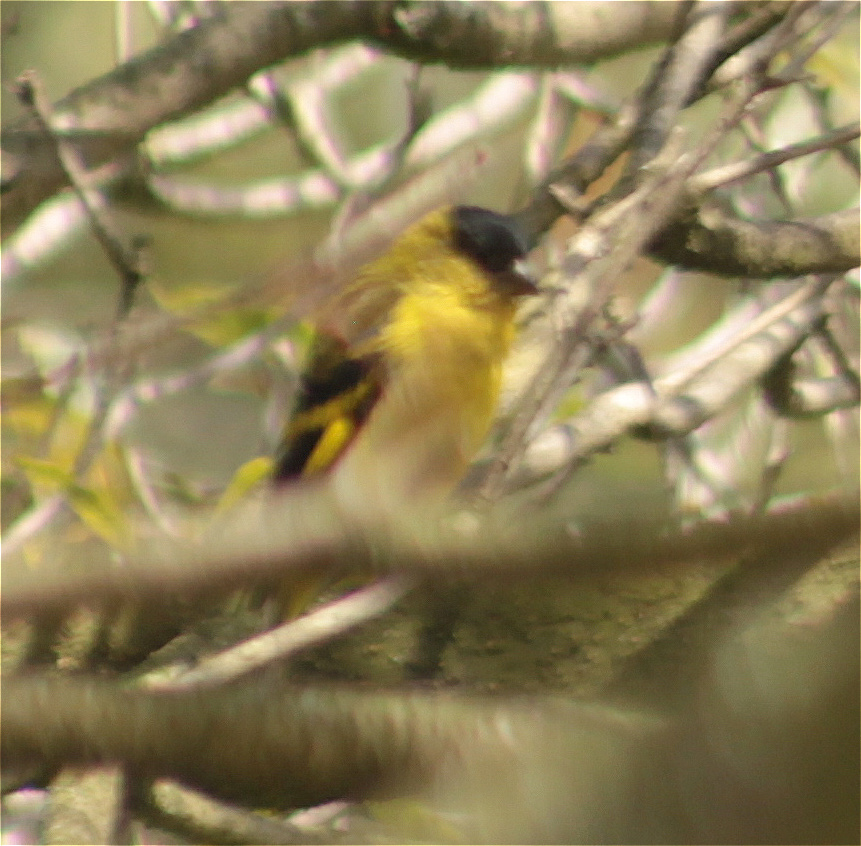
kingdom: Animalia
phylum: Chordata
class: Aves
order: Passeriformes
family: Fringillidae
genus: Spinus
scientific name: Spinus spinescens
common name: Andean siskin
